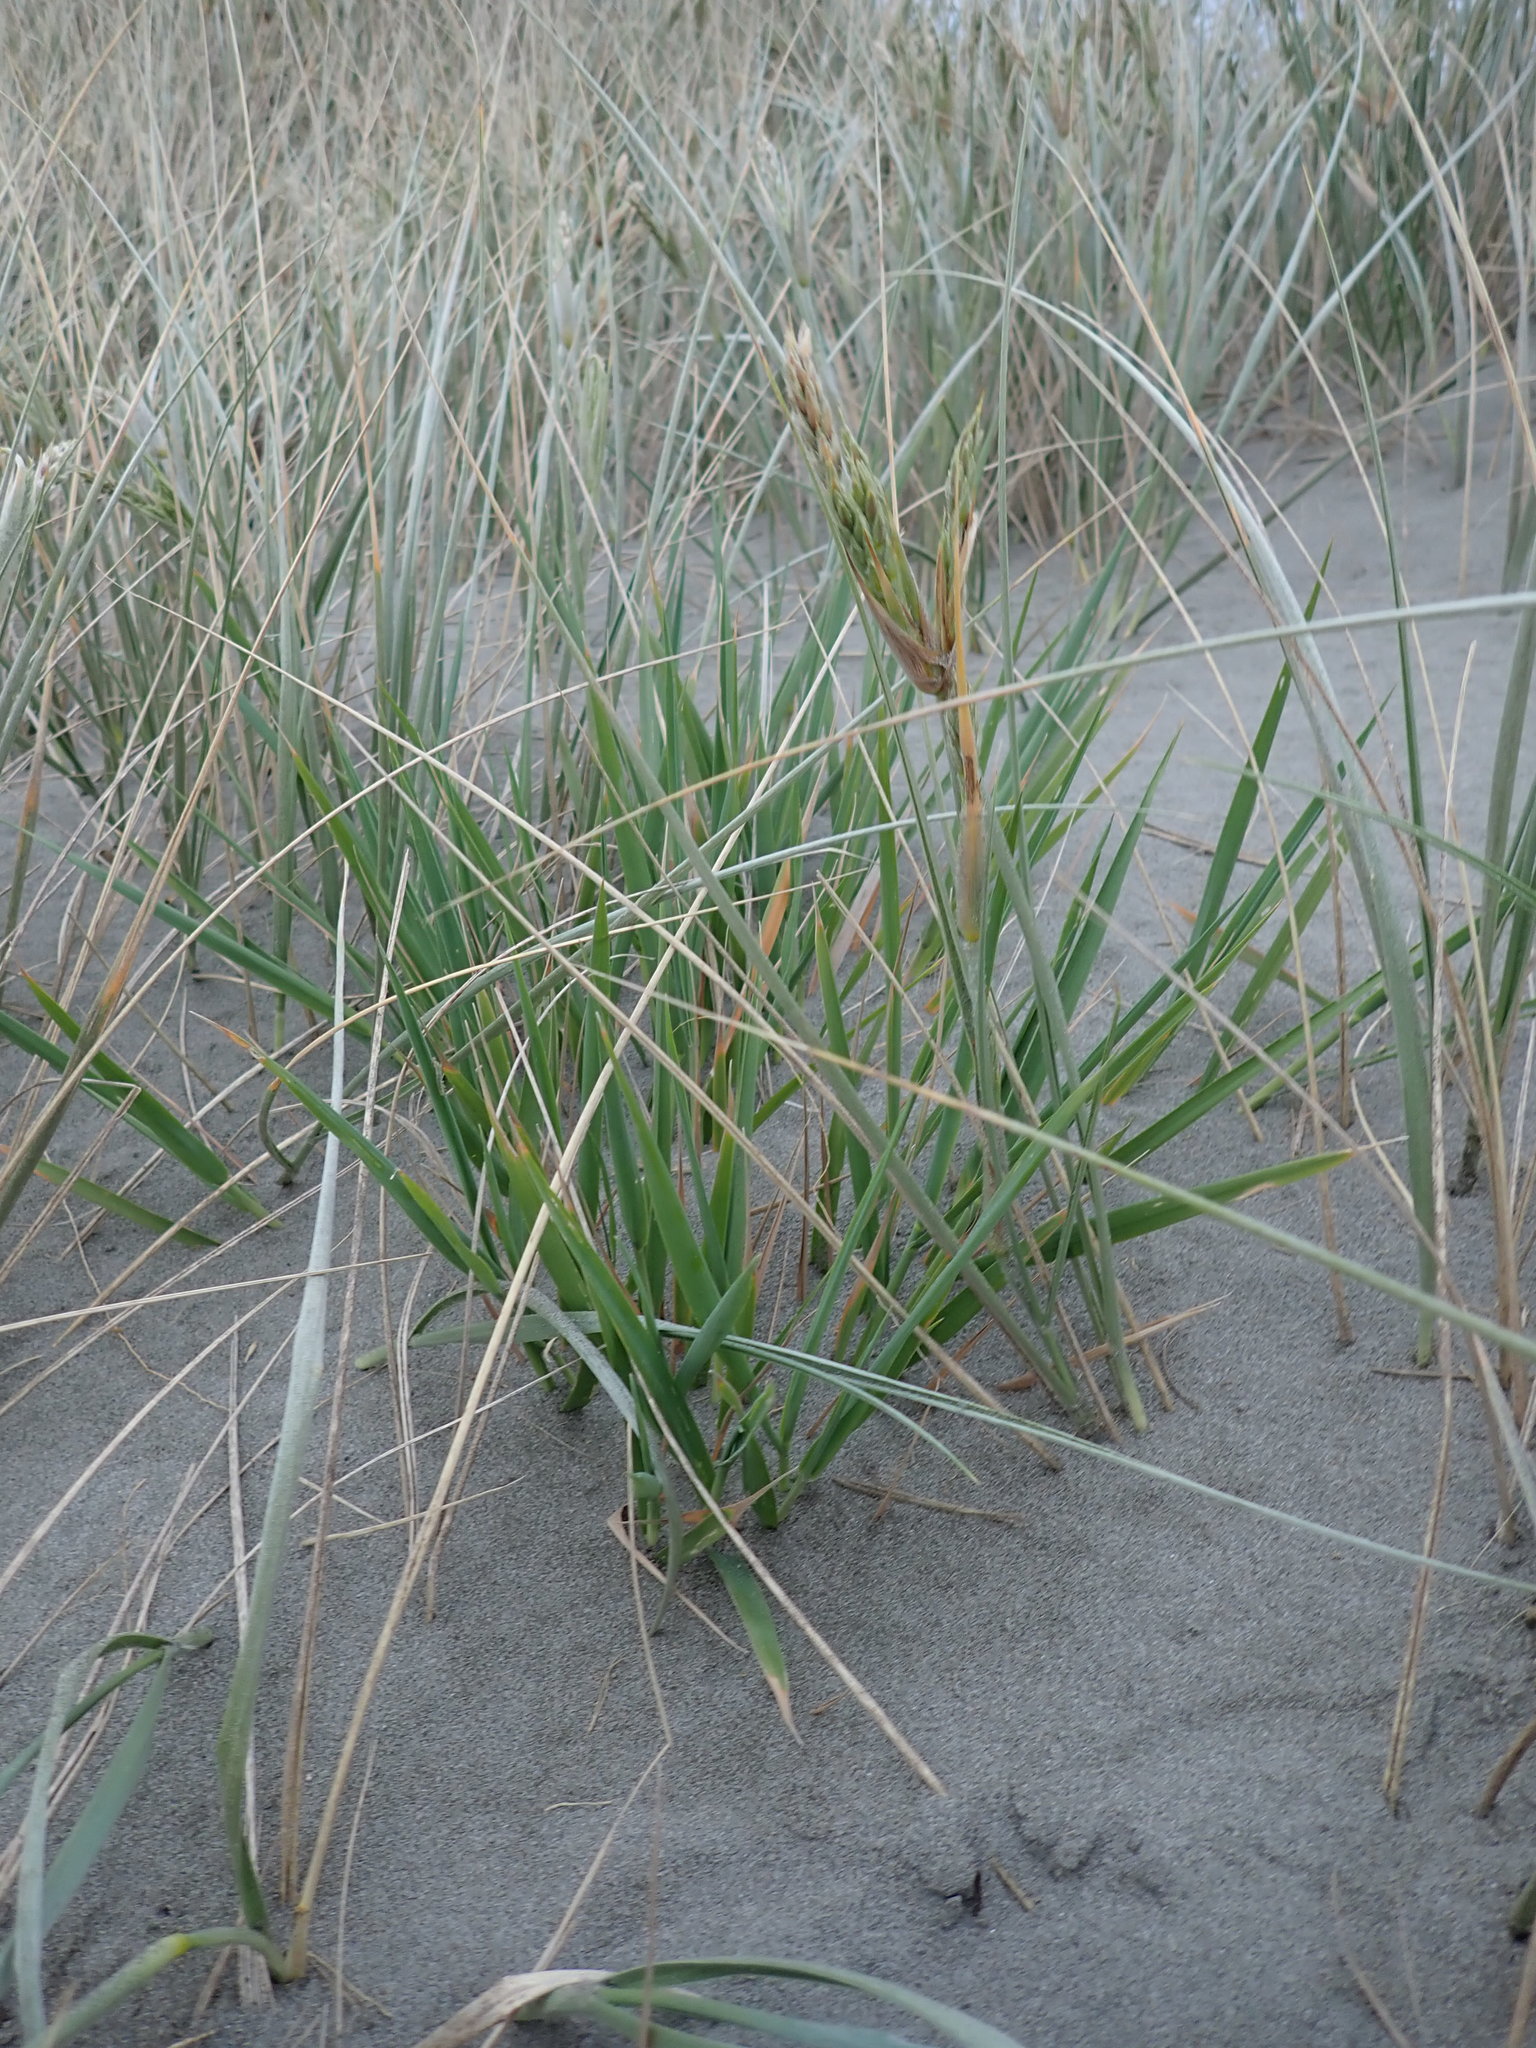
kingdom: Plantae
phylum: Tracheophyta
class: Liliopsida
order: Poales
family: Poaceae
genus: Lachnagrostis
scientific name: Lachnagrostis billardierei
